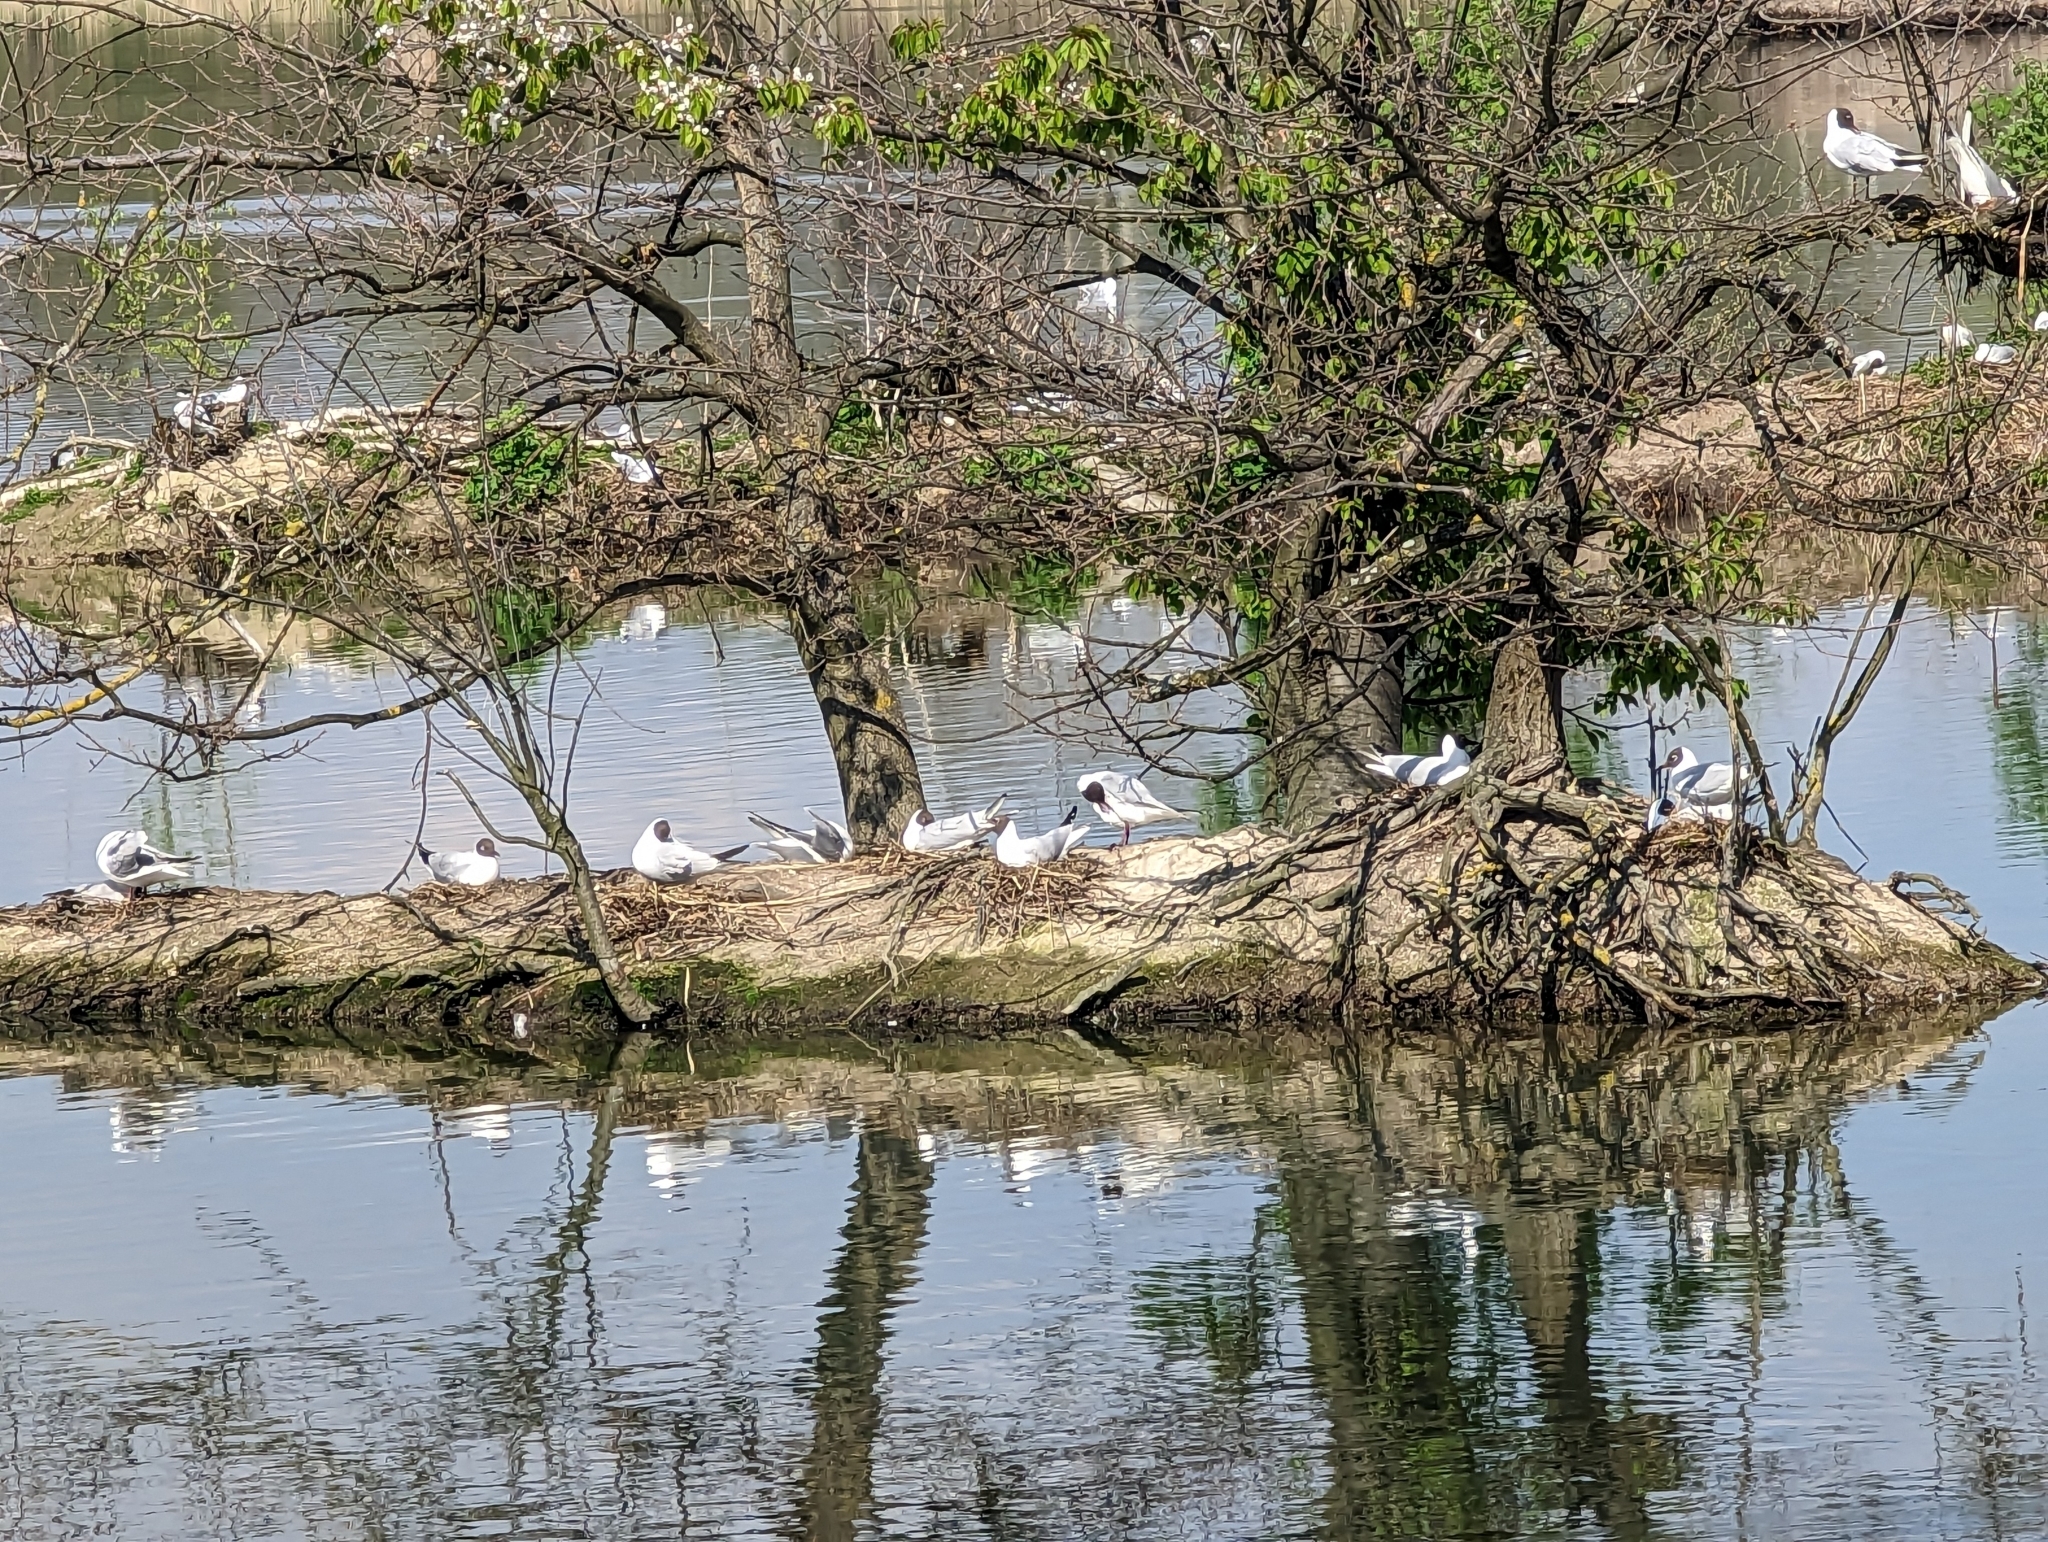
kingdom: Animalia
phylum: Chordata
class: Aves
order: Charadriiformes
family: Laridae
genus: Chroicocephalus
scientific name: Chroicocephalus ridibundus
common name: Black-headed gull
